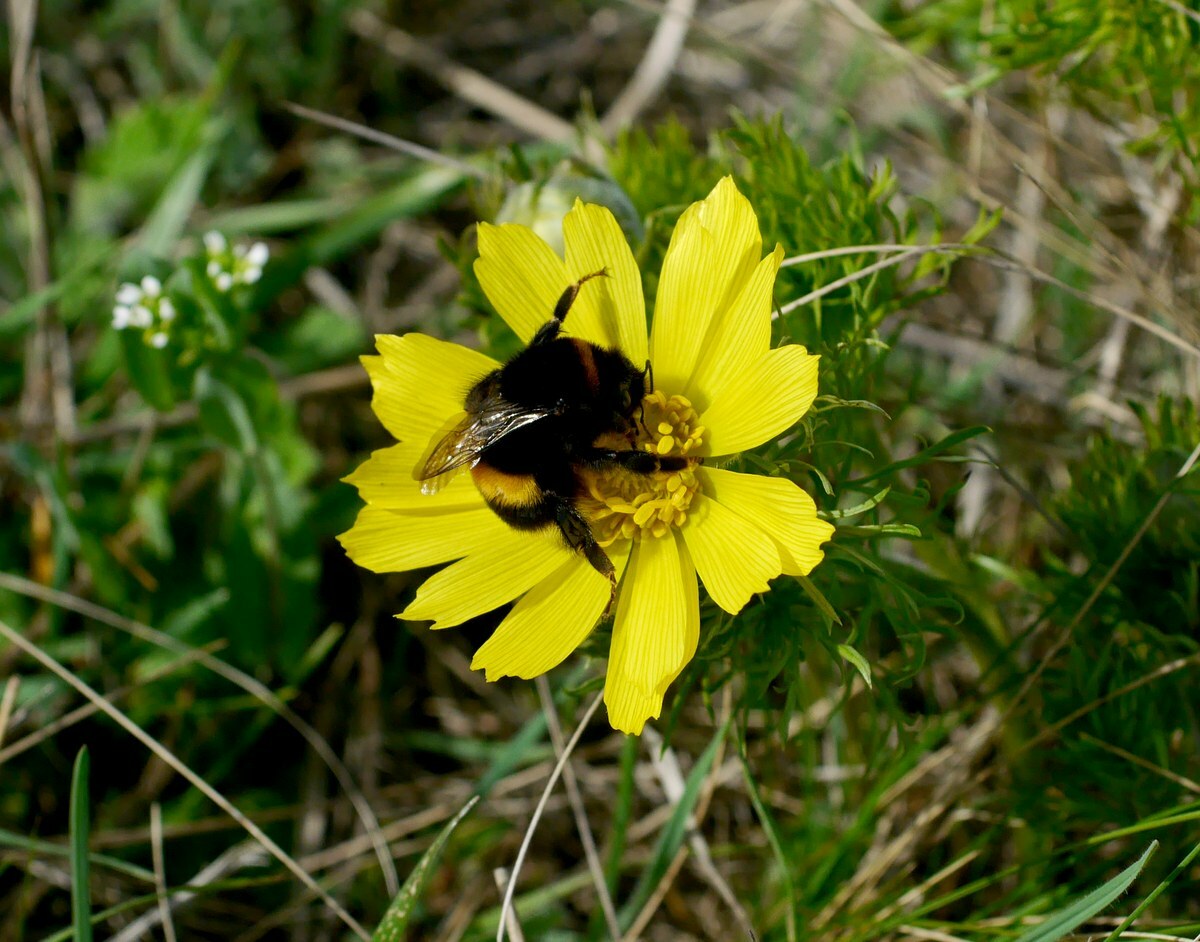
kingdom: Animalia
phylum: Arthropoda
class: Insecta
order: Hymenoptera
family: Apidae
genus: Bombus
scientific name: Bombus
